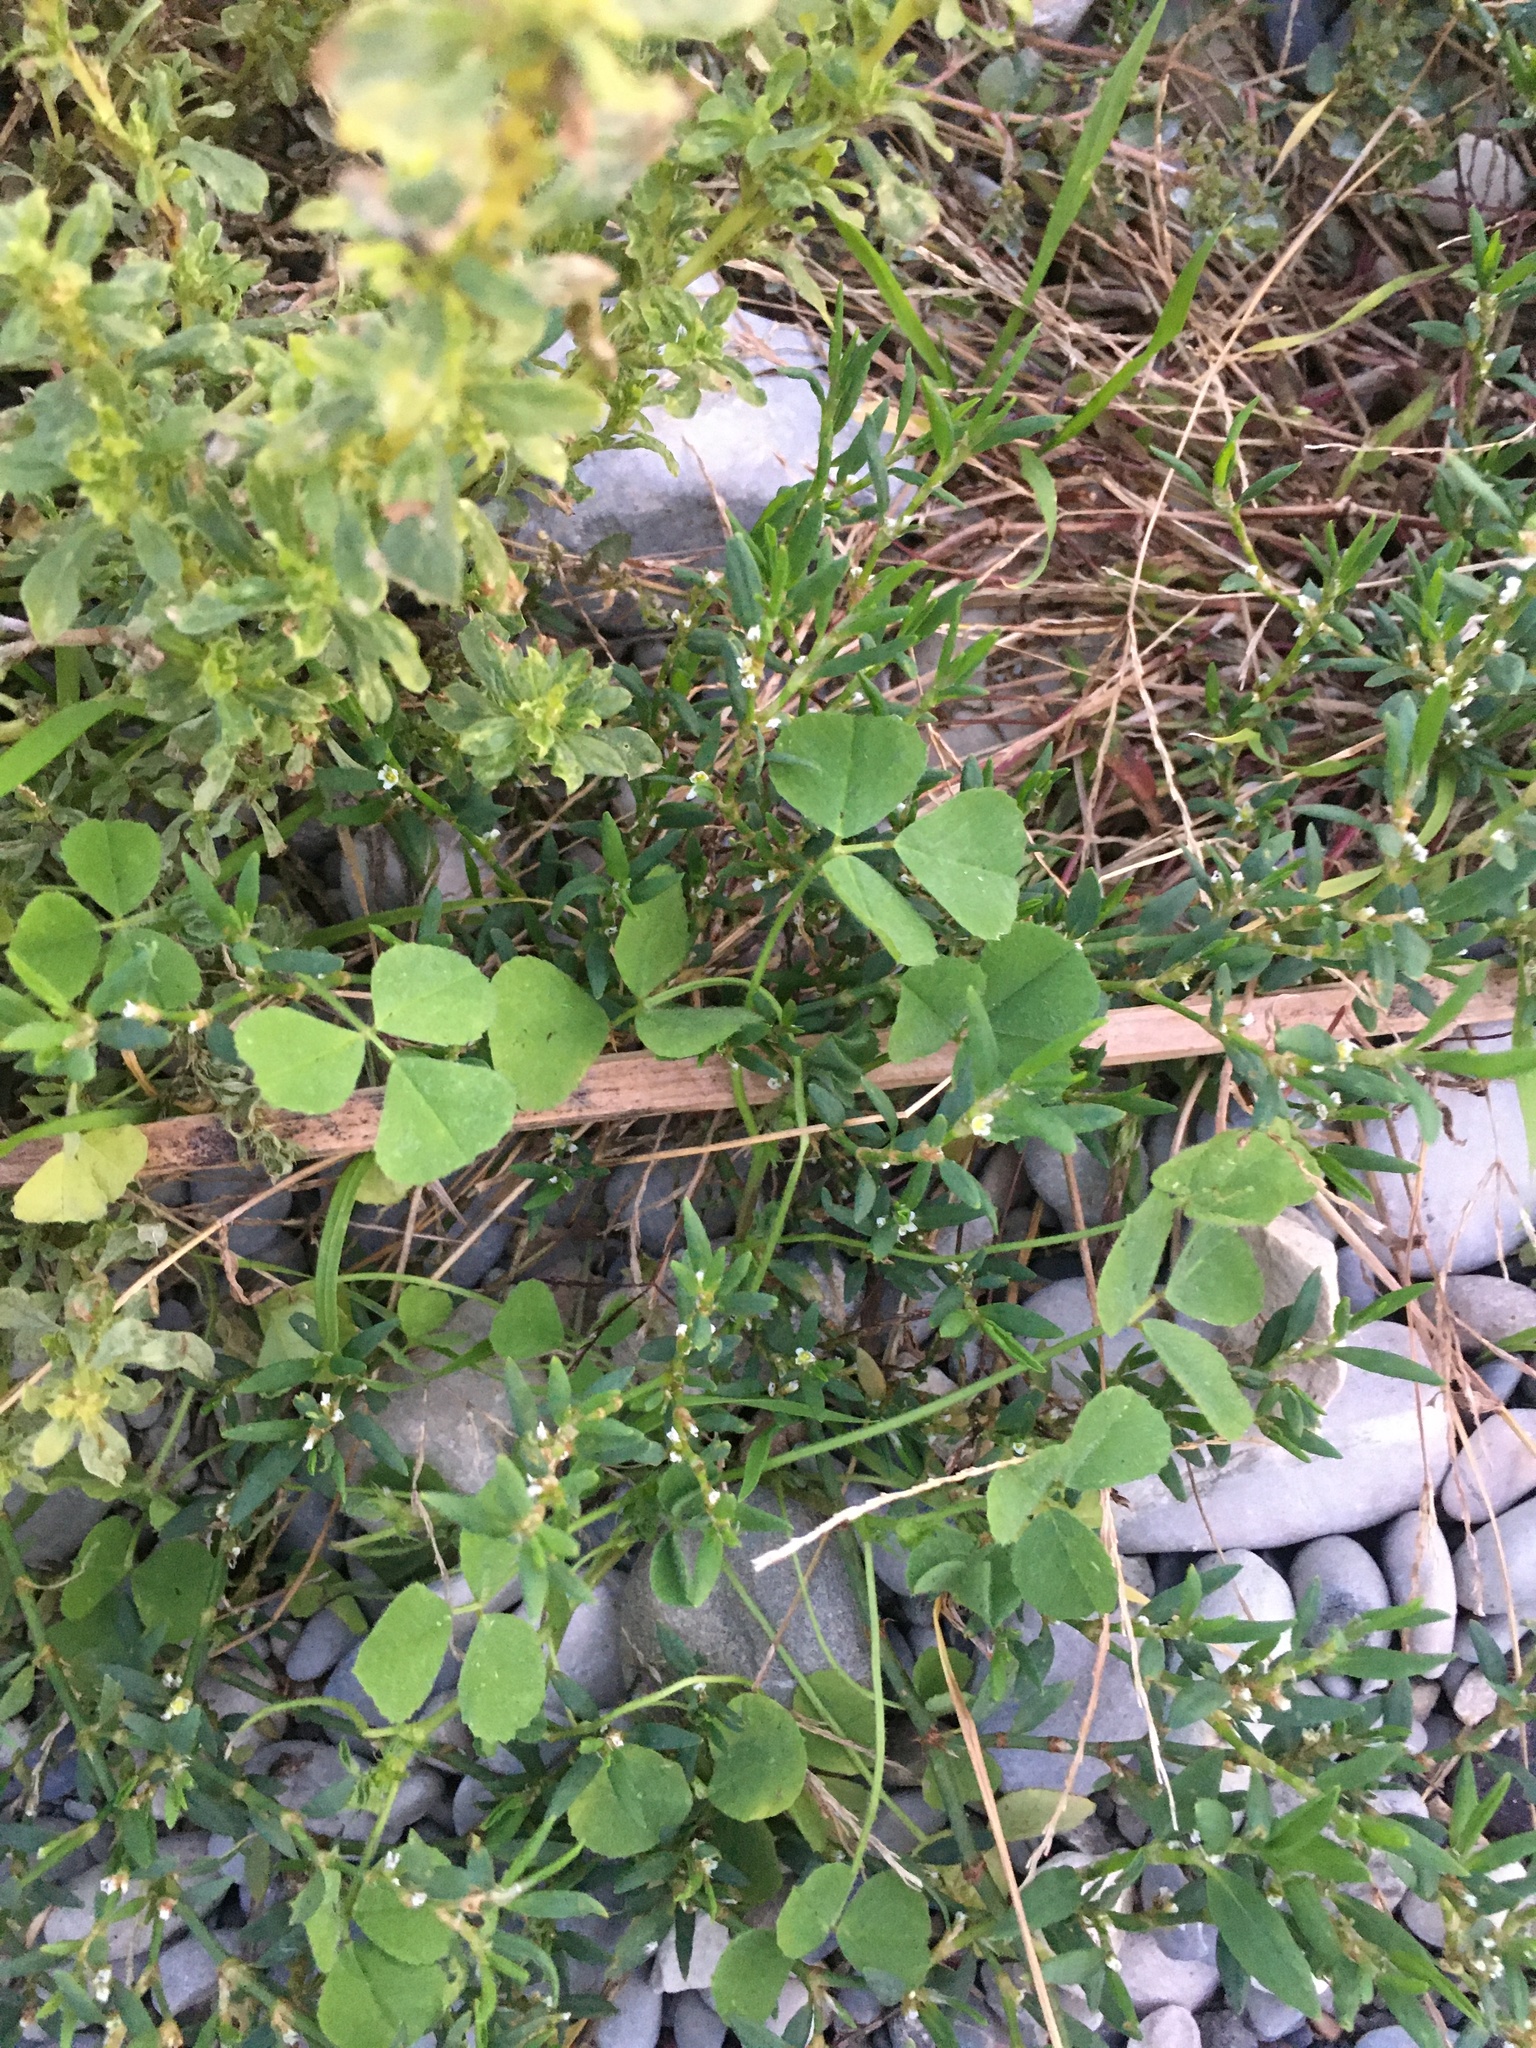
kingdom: Plantae
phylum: Tracheophyta
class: Magnoliopsida
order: Fabales
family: Fabaceae
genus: Medicago
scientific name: Medicago polymorpha
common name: Burclover
